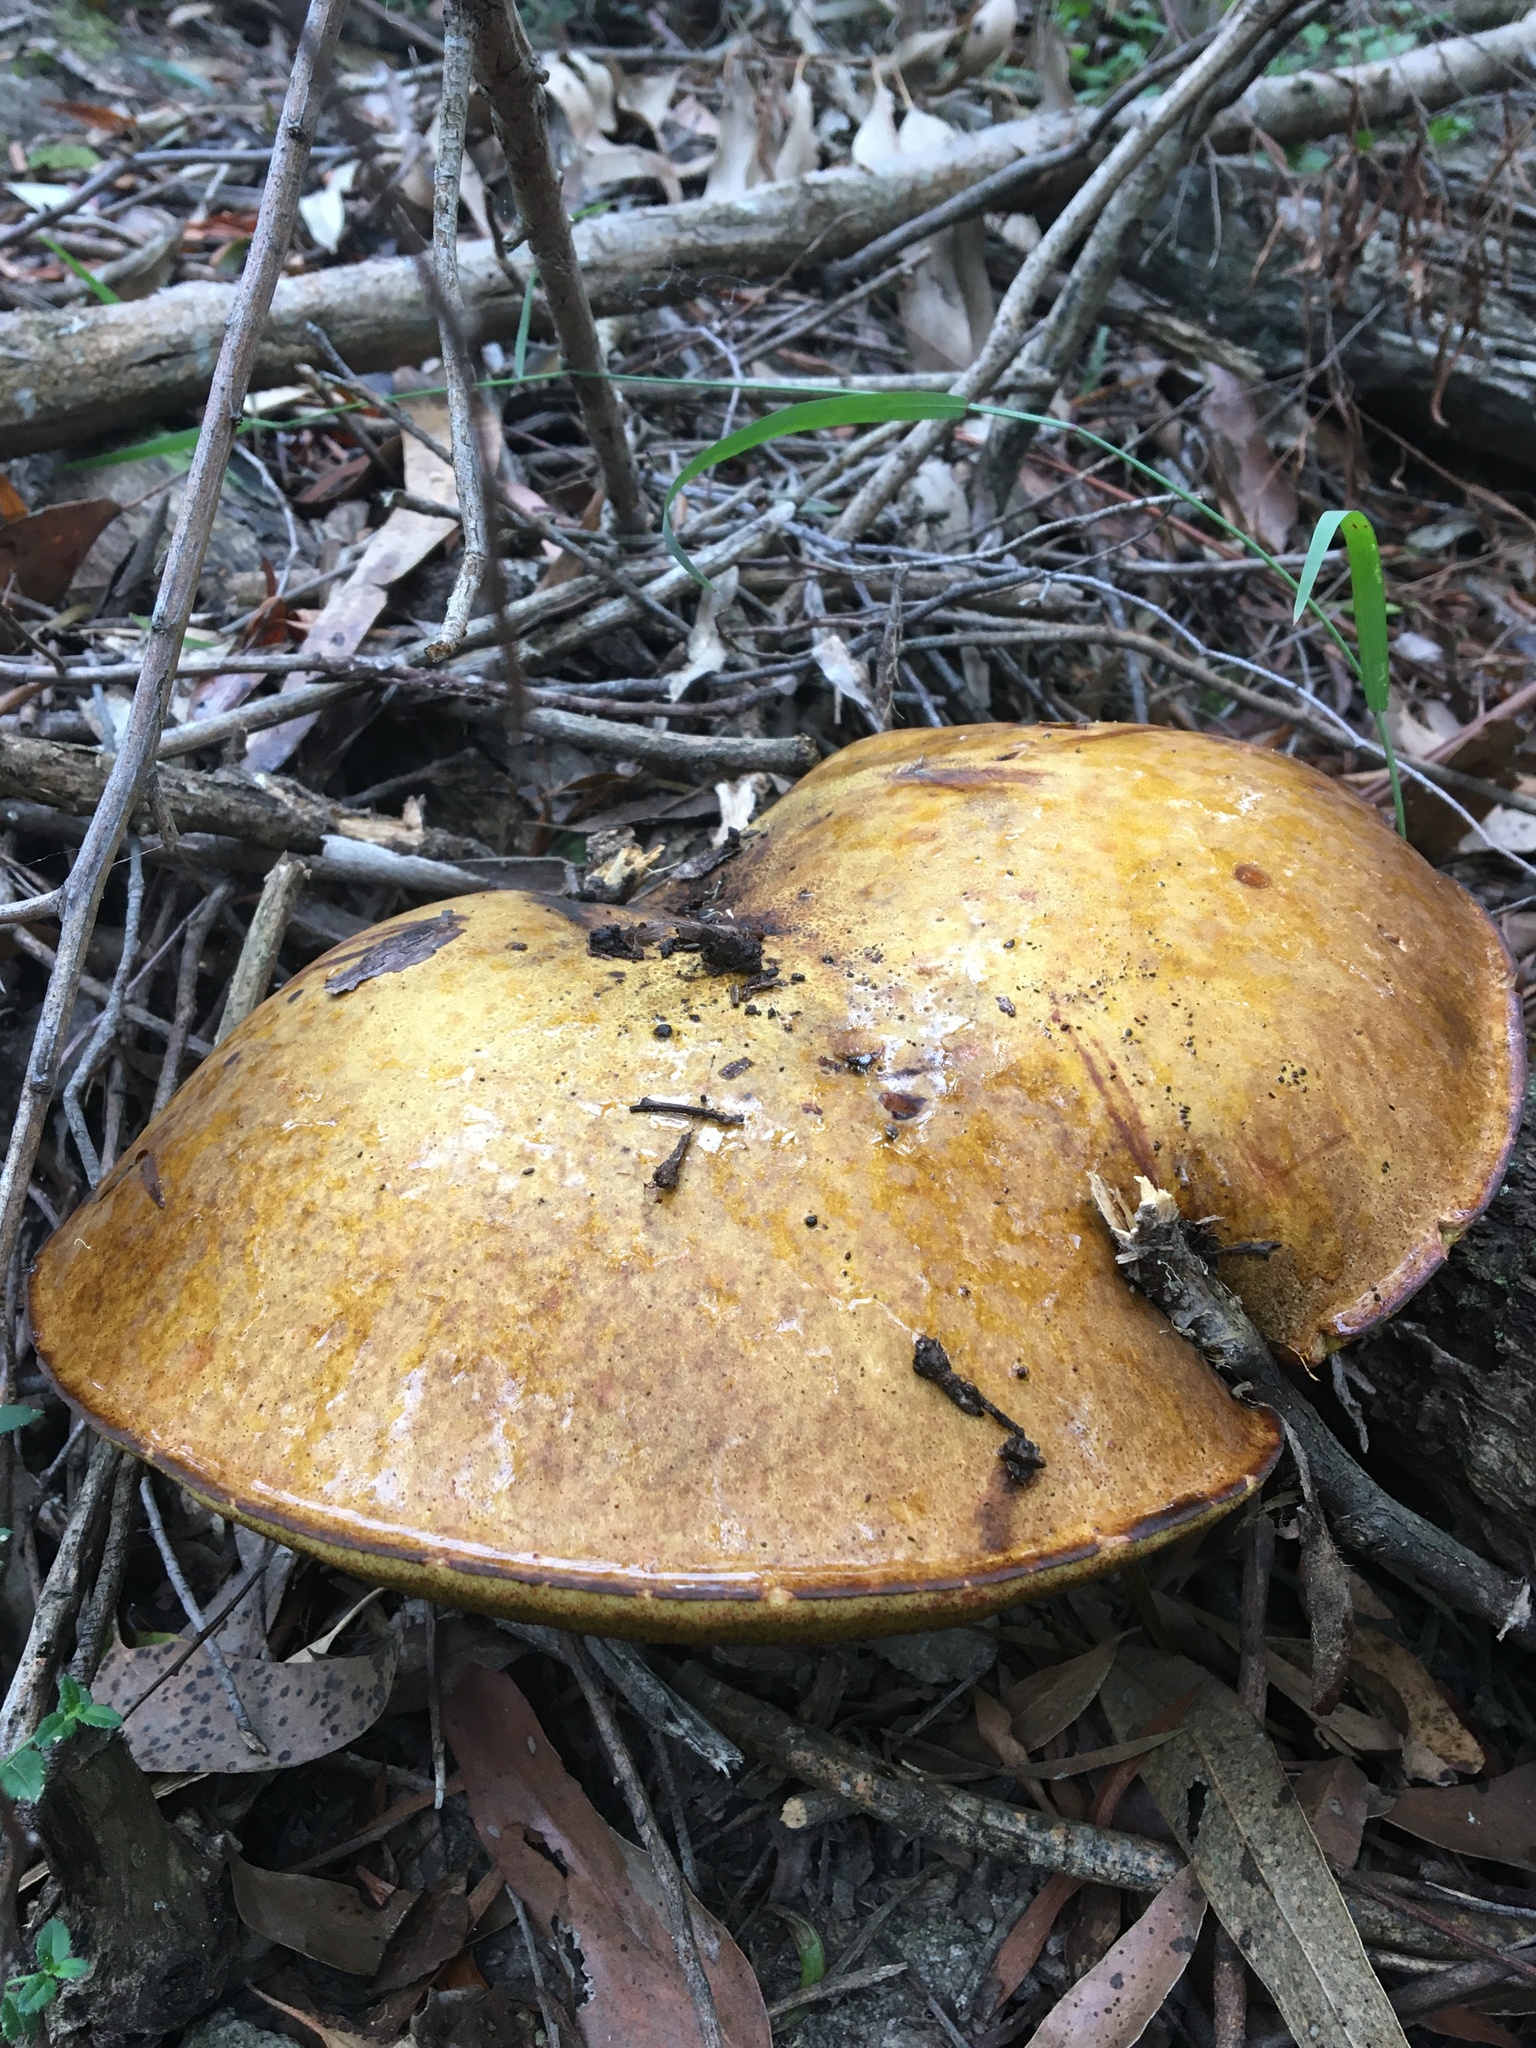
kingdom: Fungi
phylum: Basidiomycota
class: Agaricomycetes
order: Boletales
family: Boletinellaceae
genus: Phlebopus
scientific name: Phlebopus marginatus
